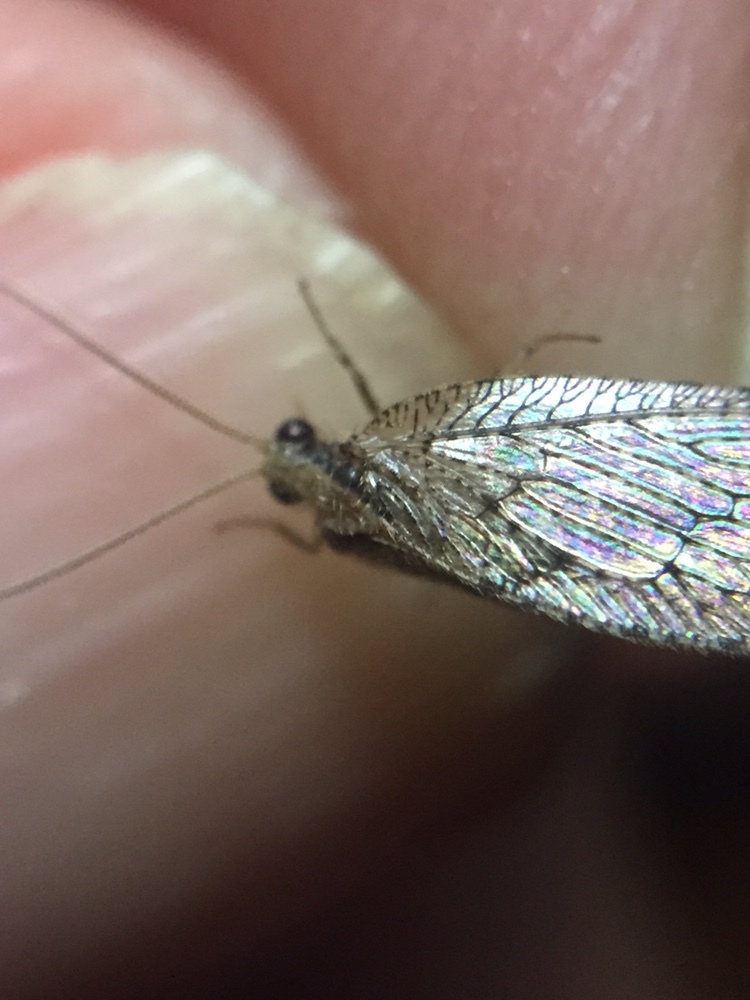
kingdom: Animalia
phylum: Arthropoda
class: Insecta
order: Neuroptera
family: Hemerobiidae
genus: Wesmaelius
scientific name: Wesmaelius subnebulosus
